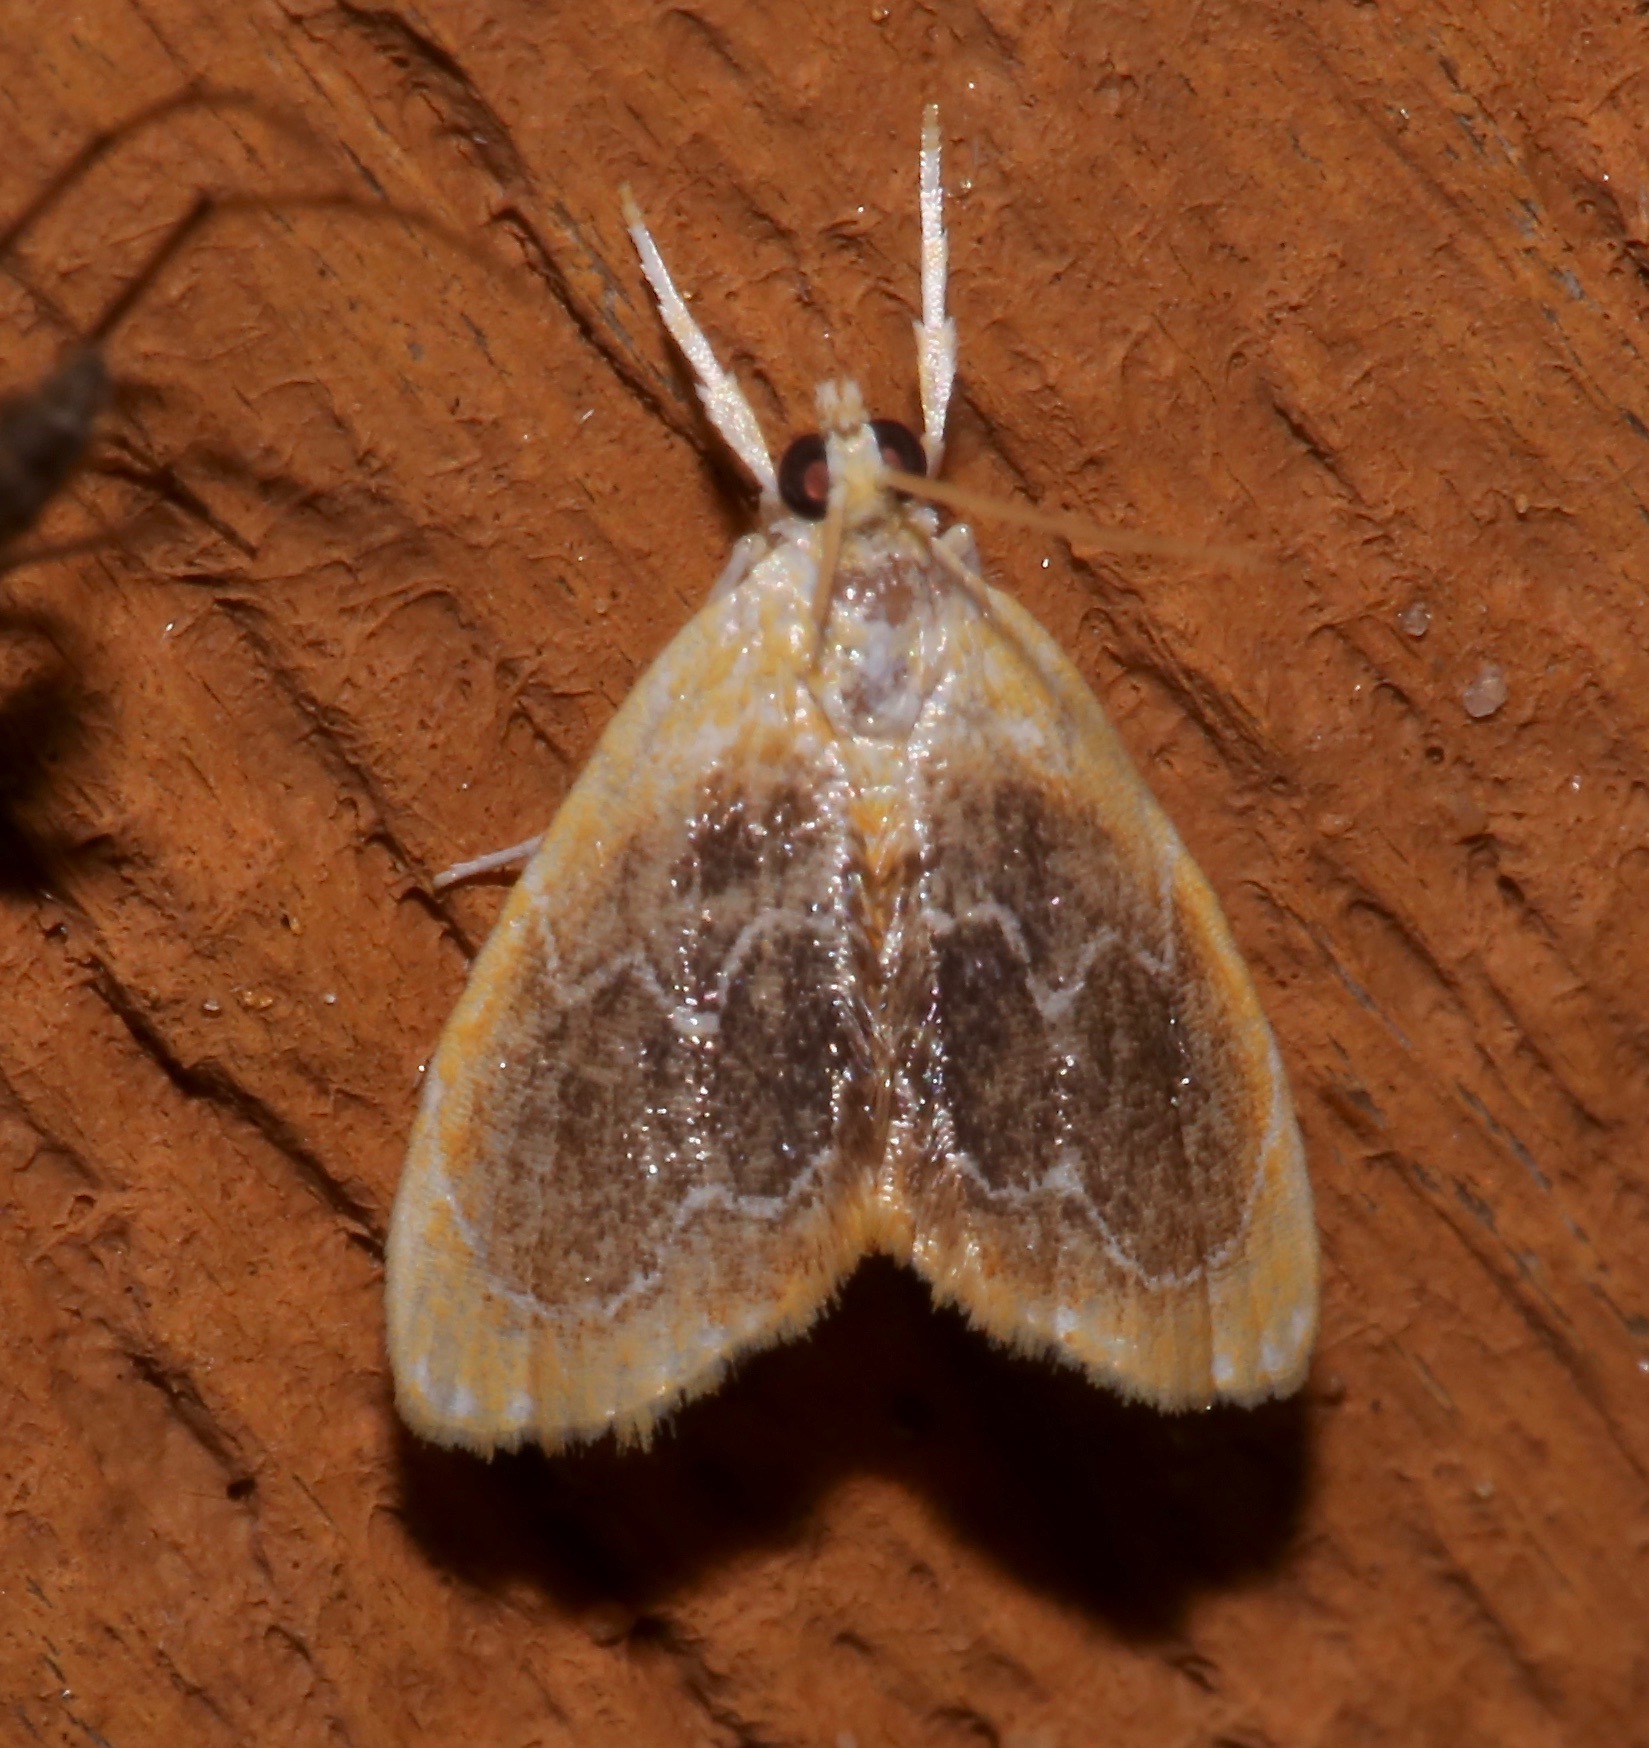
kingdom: Animalia
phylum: Arthropoda
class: Insecta
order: Lepidoptera
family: Crambidae
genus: Glaphyria
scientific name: Glaphyria fulminalis
